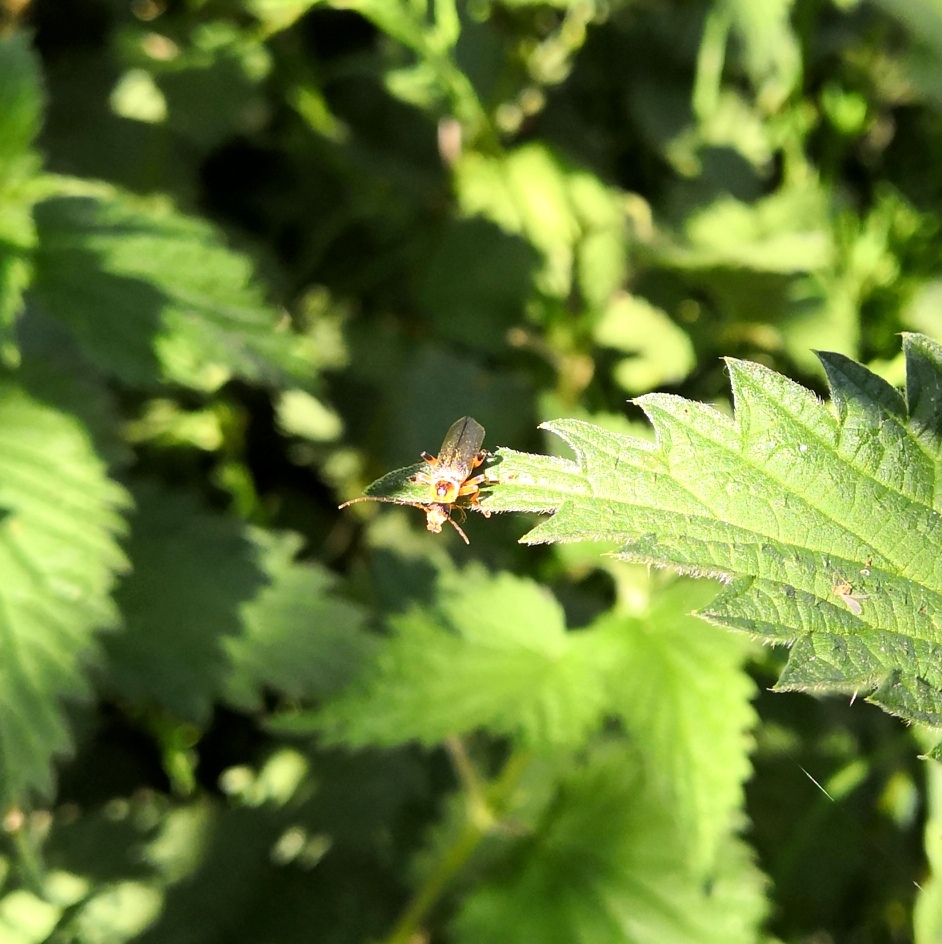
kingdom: Animalia
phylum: Arthropoda
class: Insecta
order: Coleoptera
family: Cantharidae
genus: Cantharis
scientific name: Cantharis nigricans
